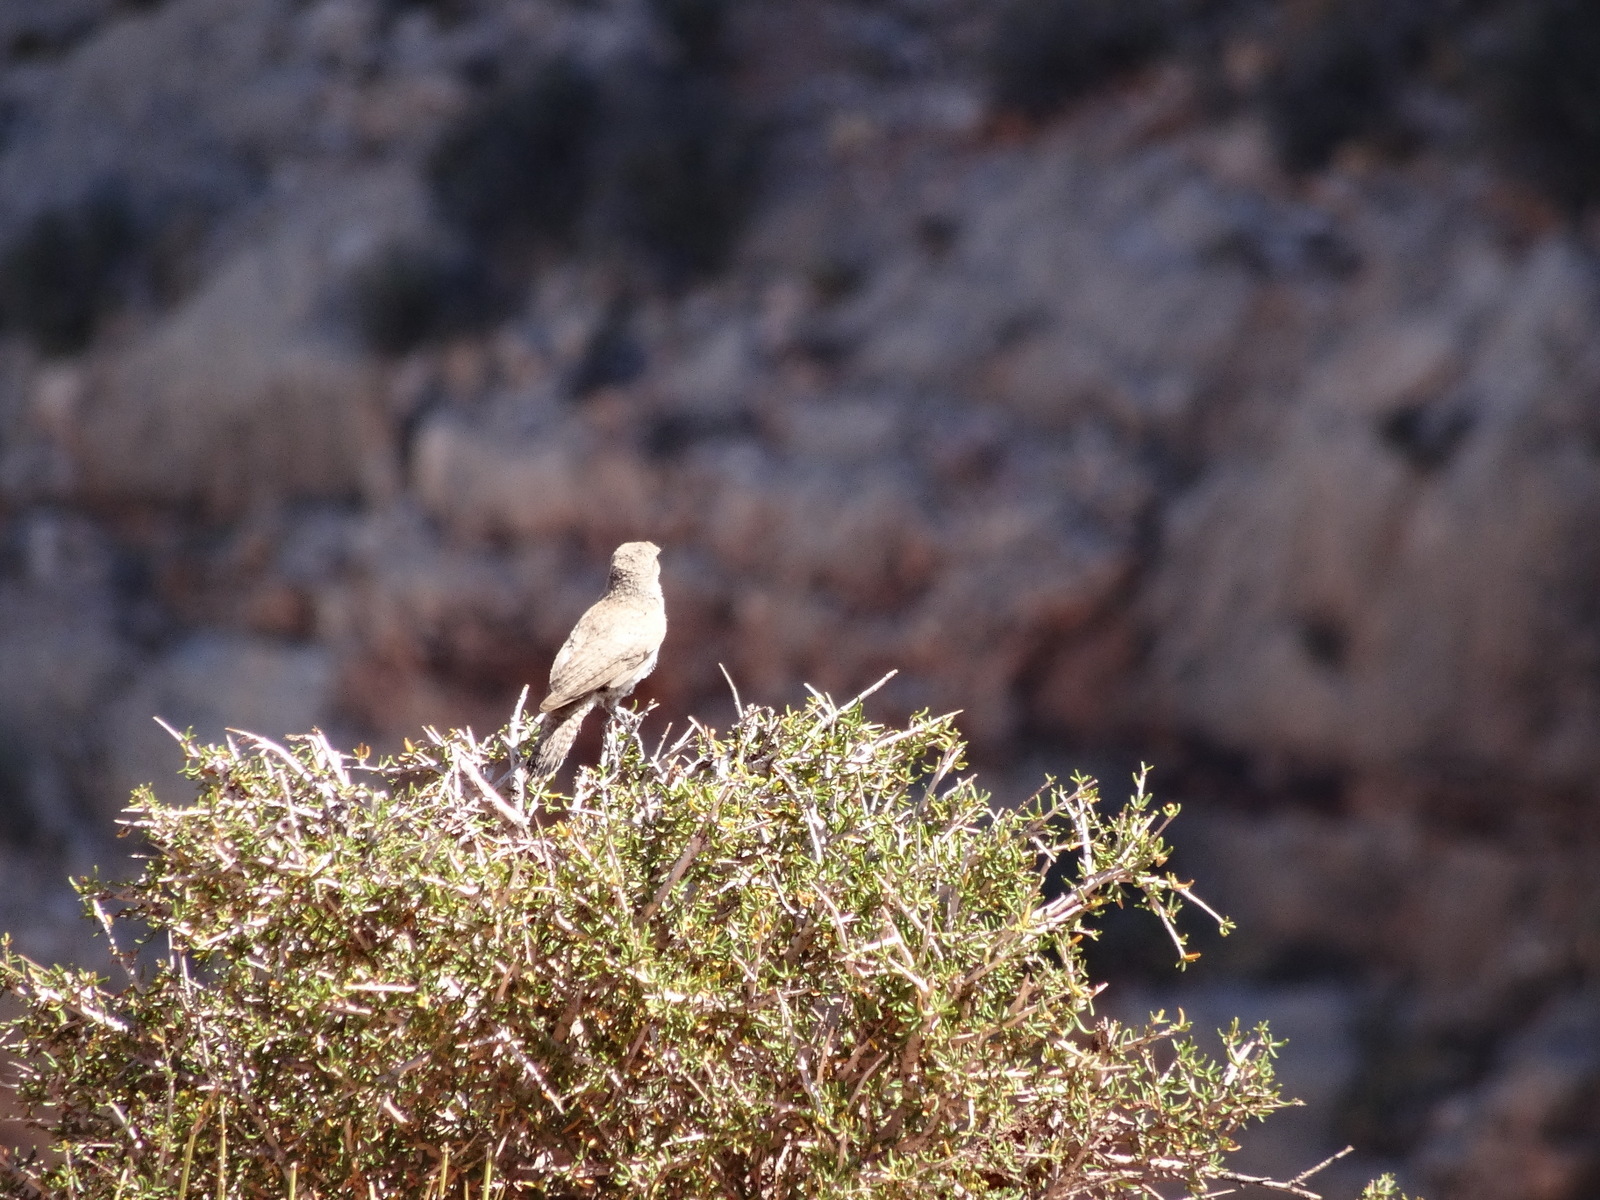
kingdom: Animalia
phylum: Chordata
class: Aves
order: Passeriformes
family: Troglodytidae
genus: Salpinctes
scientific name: Salpinctes obsoletus
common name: Rock wren
